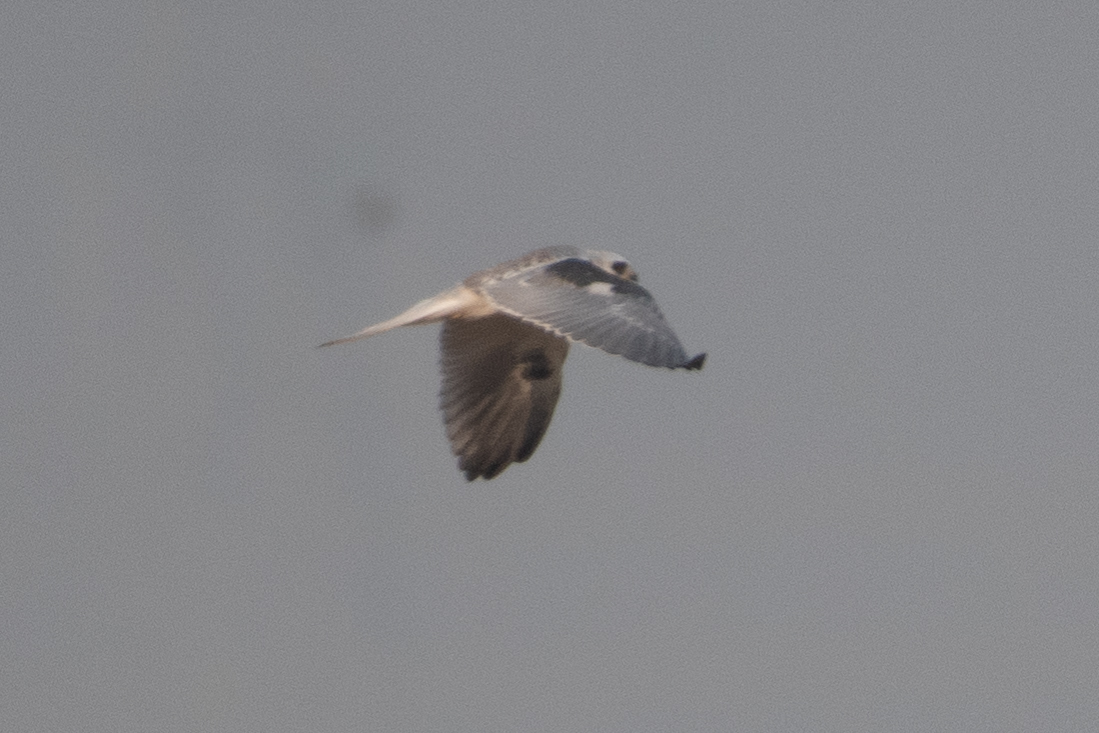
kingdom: Animalia
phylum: Chordata
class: Aves
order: Accipitriformes
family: Accipitridae
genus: Elanus
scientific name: Elanus leucurus
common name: White-tailed kite
